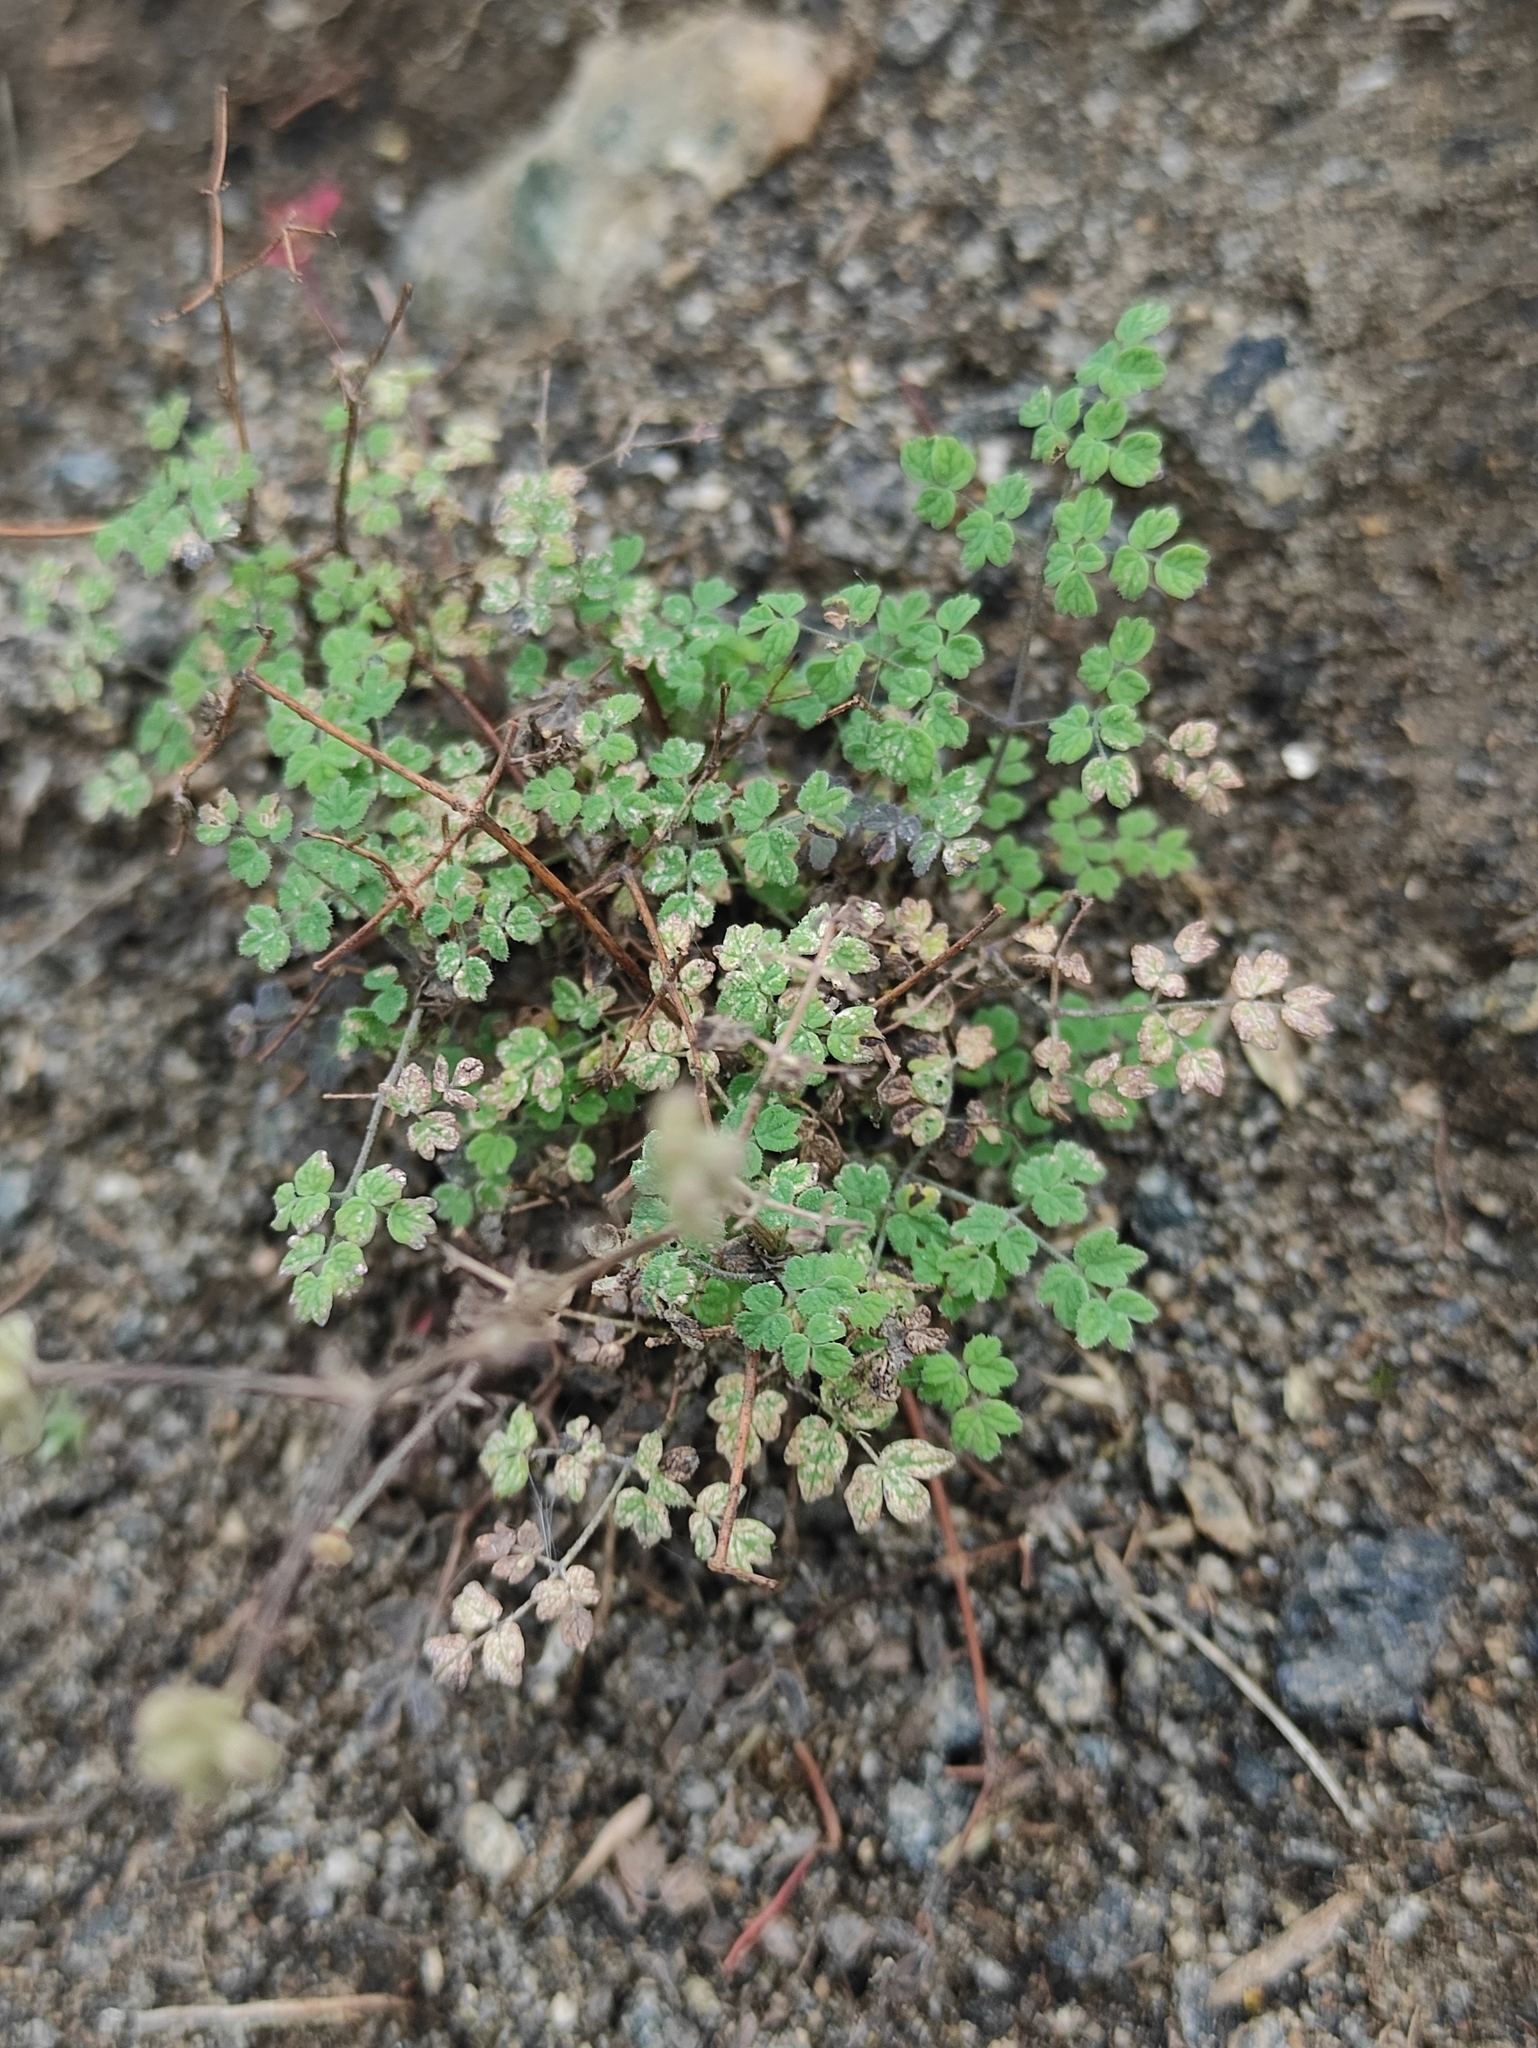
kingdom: Plantae
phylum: Tracheophyta
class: Magnoliopsida
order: Ranunculales
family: Ranunculaceae
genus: Thalictrum
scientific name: Thalictrum foetidum
